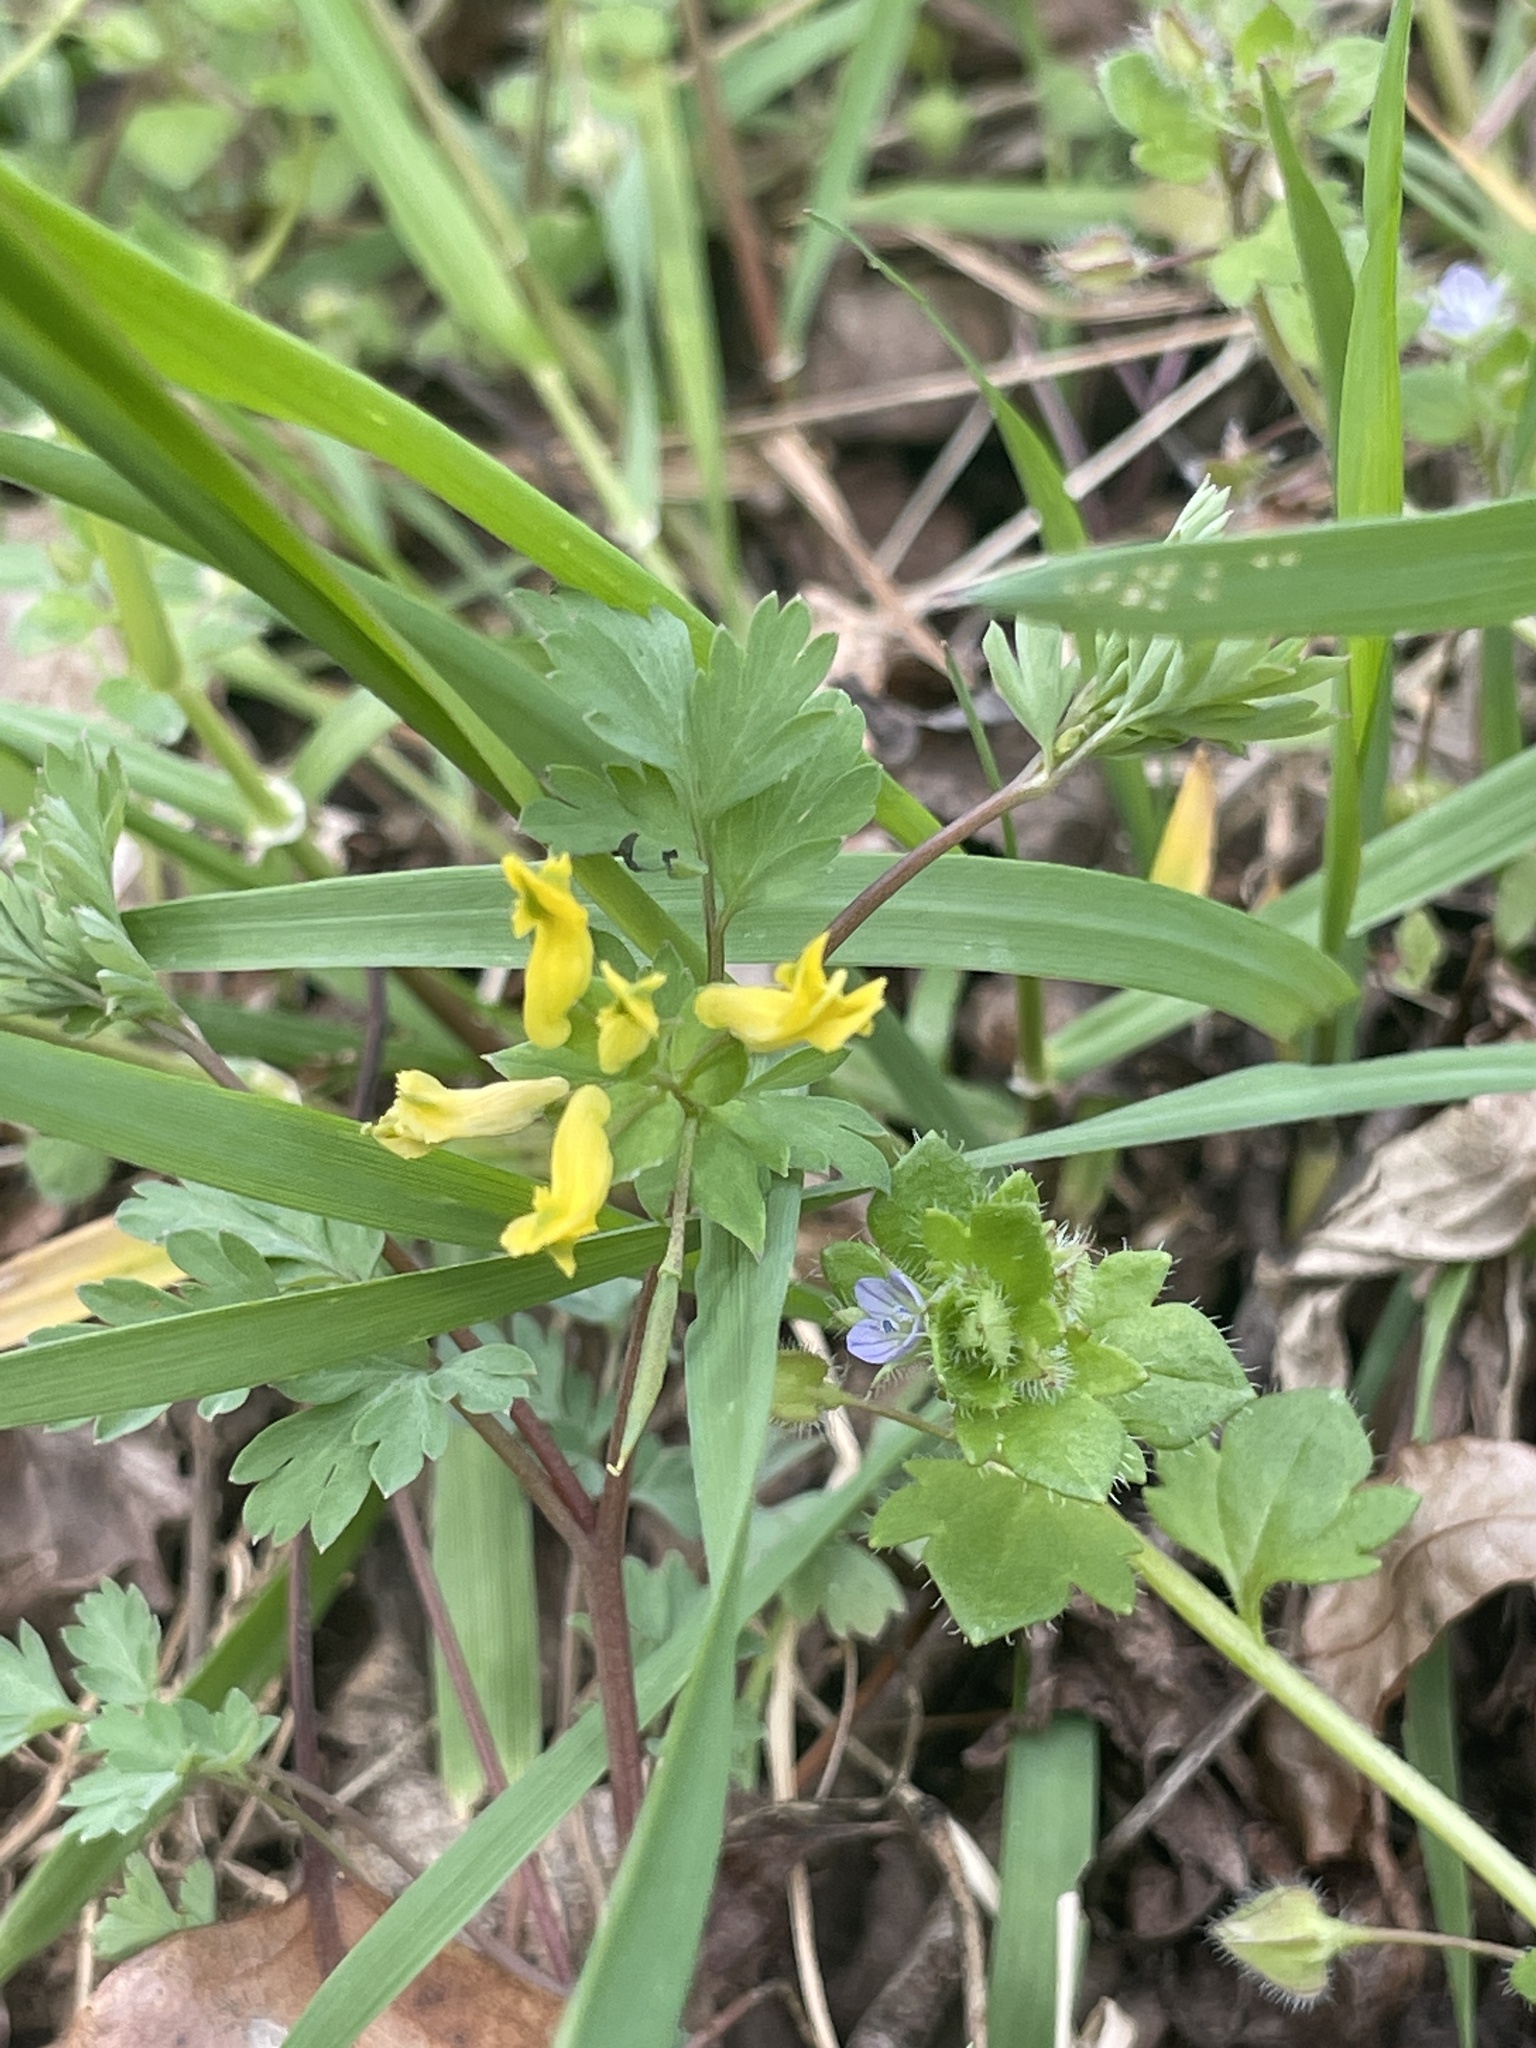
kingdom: Plantae
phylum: Tracheophyta
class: Magnoliopsida
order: Ranunculales
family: Papaveraceae
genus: Corydalis
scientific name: Corydalis flavula
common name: Yellow corydalis
